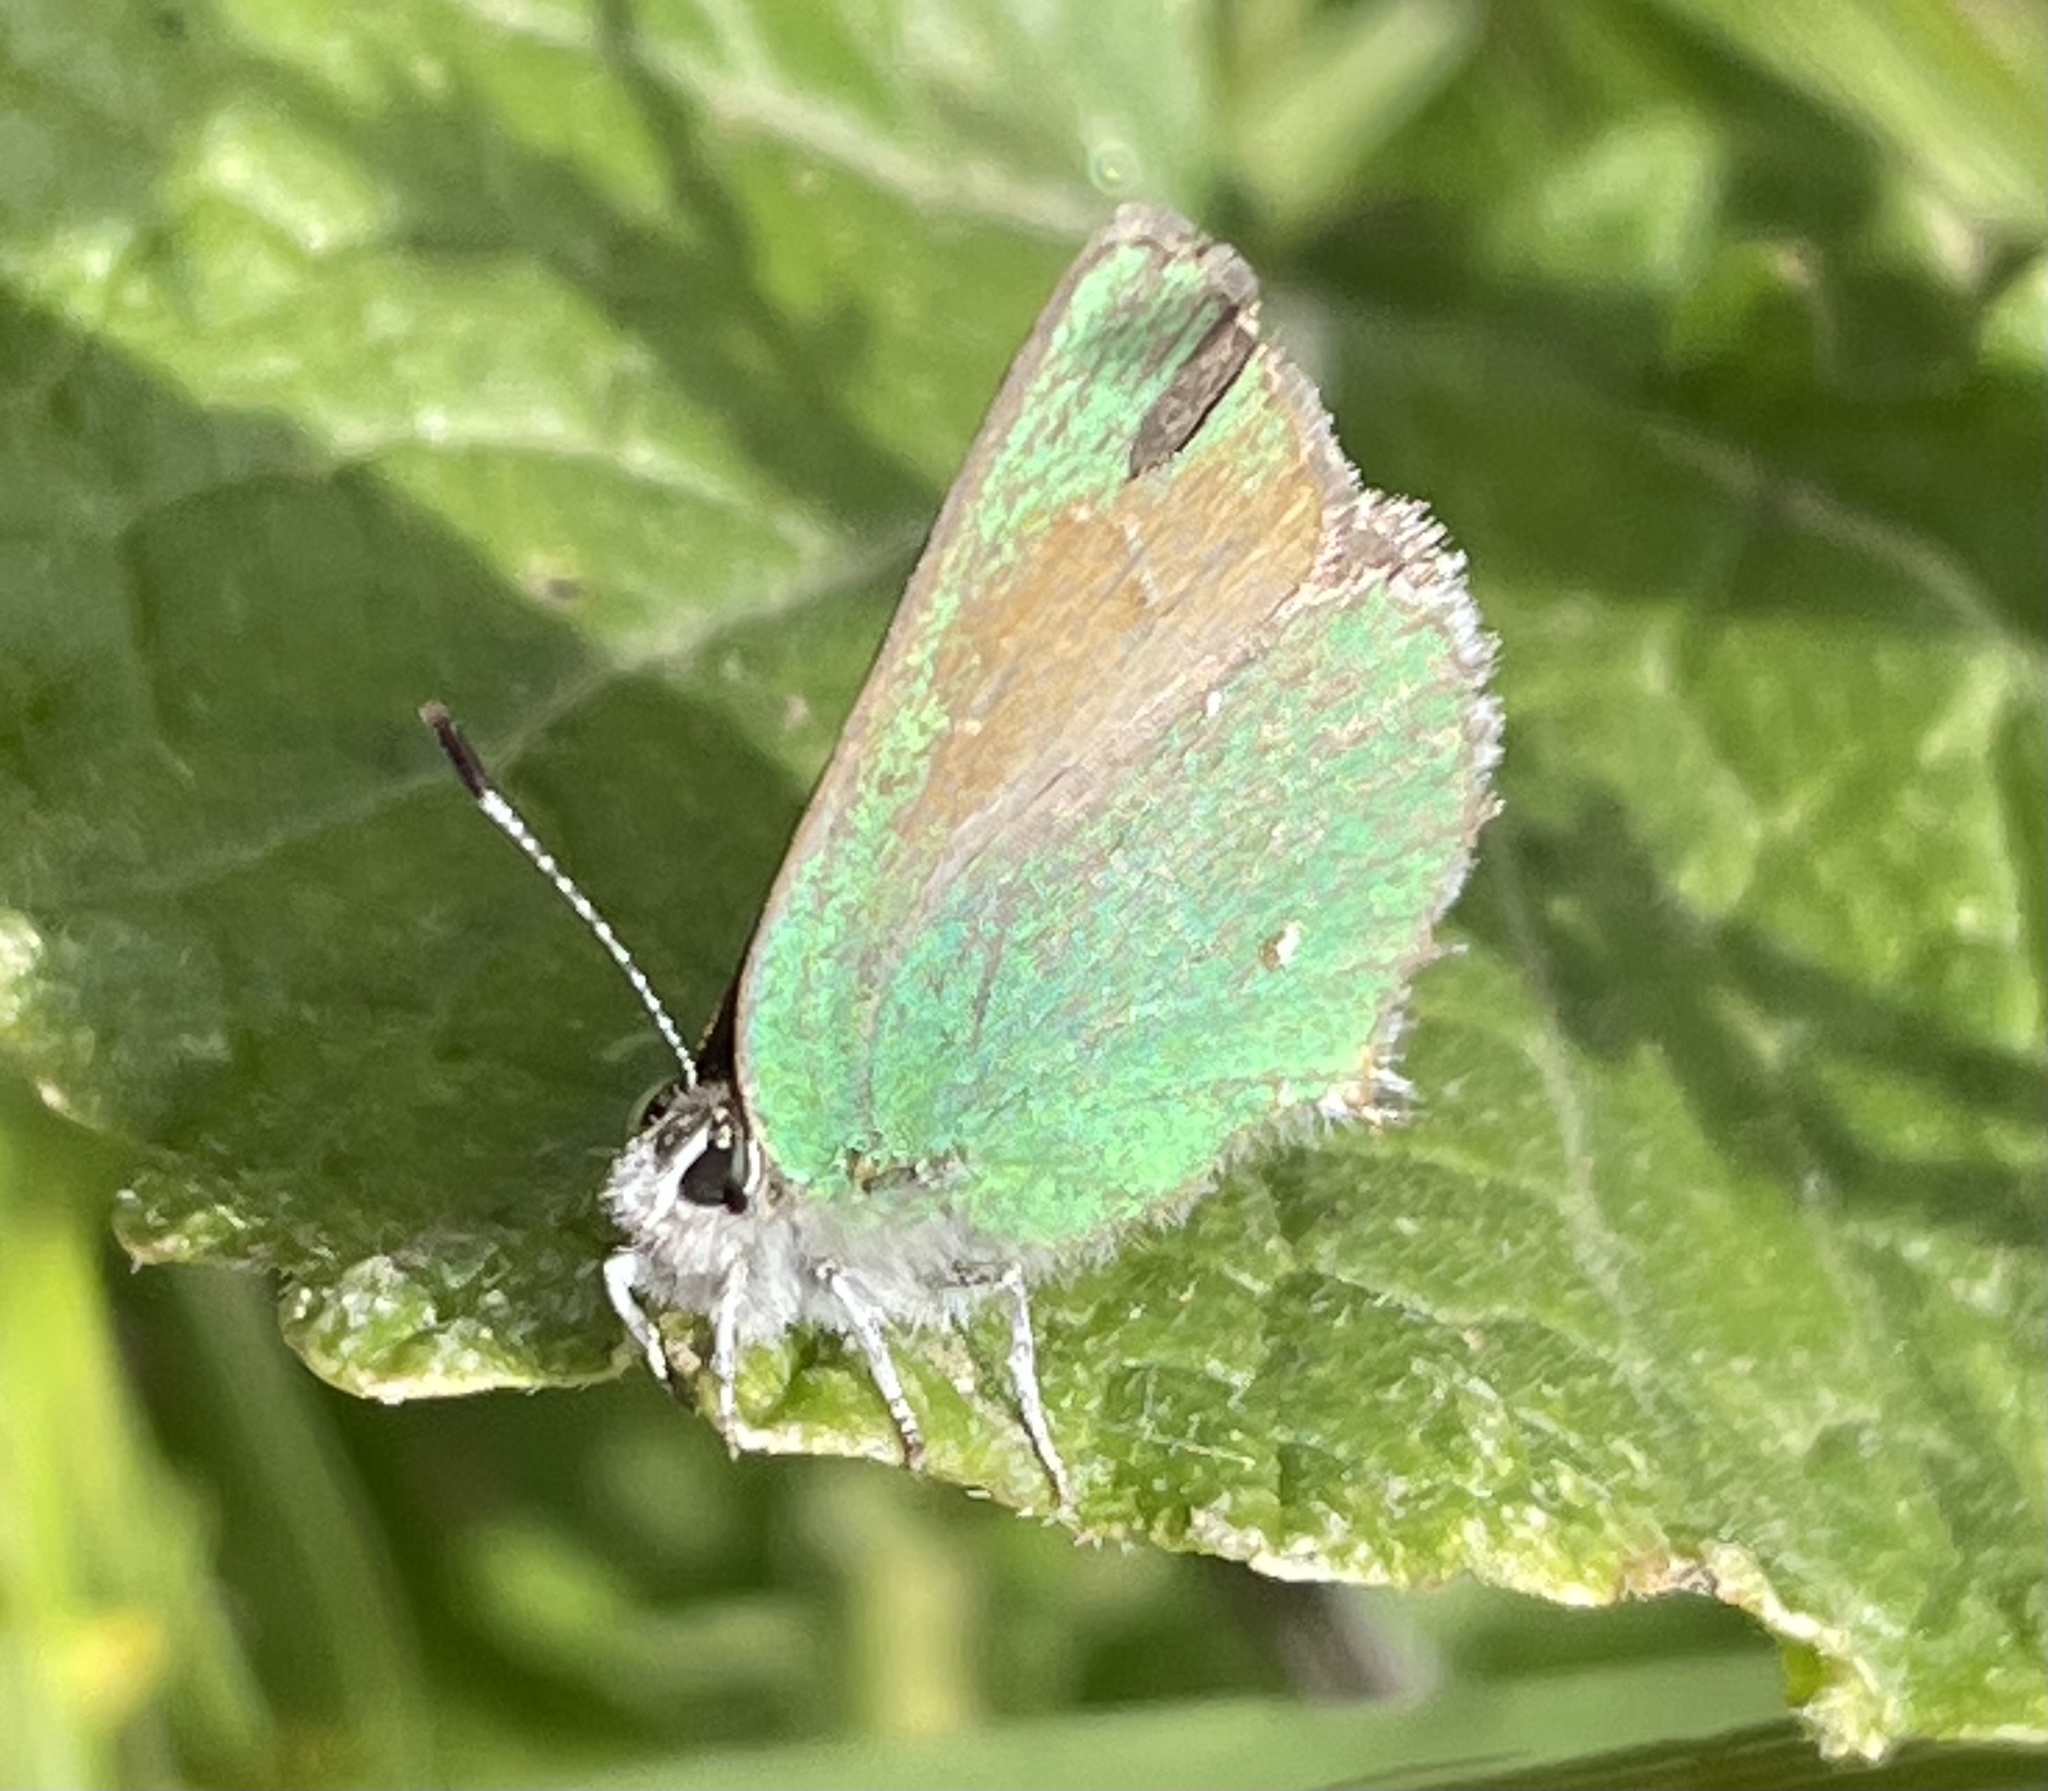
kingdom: Animalia
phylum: Arthropoda
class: Insecta
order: Lepidoptera
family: Lycaenidae
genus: Callophrys
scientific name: Callophrys dumetorum
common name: Bramble hairstreak
